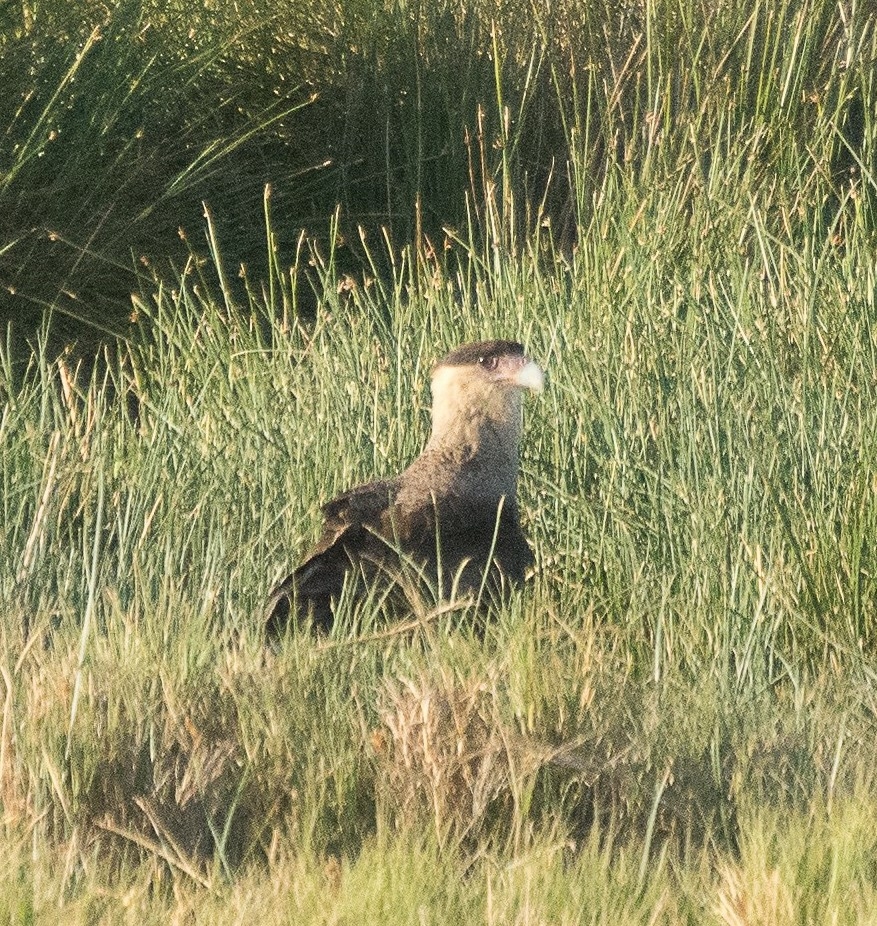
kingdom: Animalia
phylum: Chordata
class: Aves
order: Falconiformes
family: Falconidae
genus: Caracara
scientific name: Caracara plancus
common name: Southern caracara
